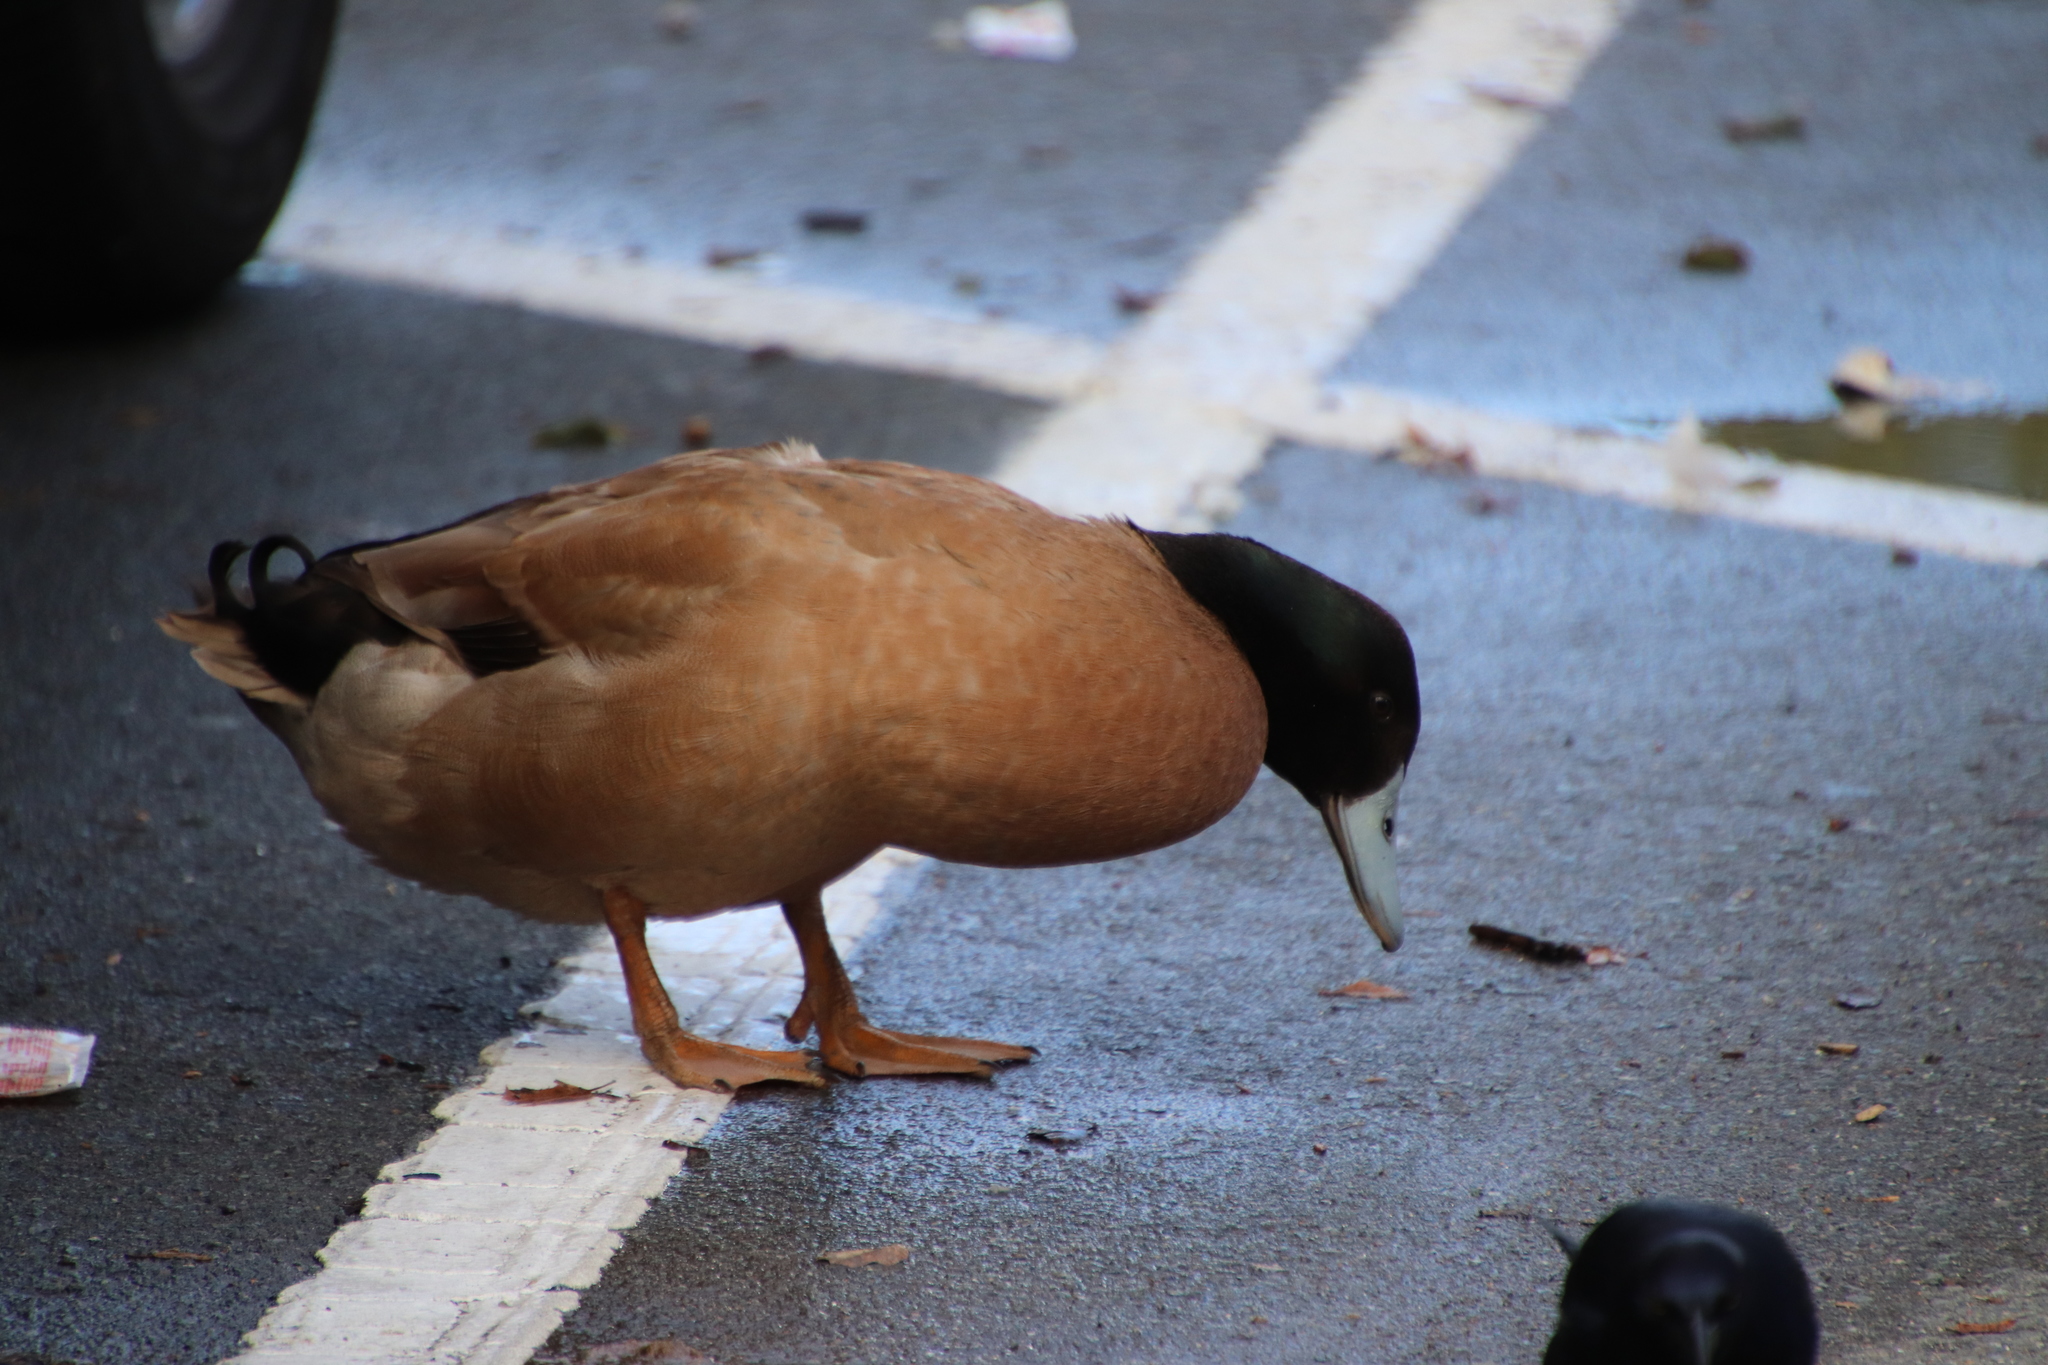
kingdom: Animalia
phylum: Chordata
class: Aves
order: Anseriformes
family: Anatidae
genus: Anas
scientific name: Anas platyrhynchos
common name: Mallard
